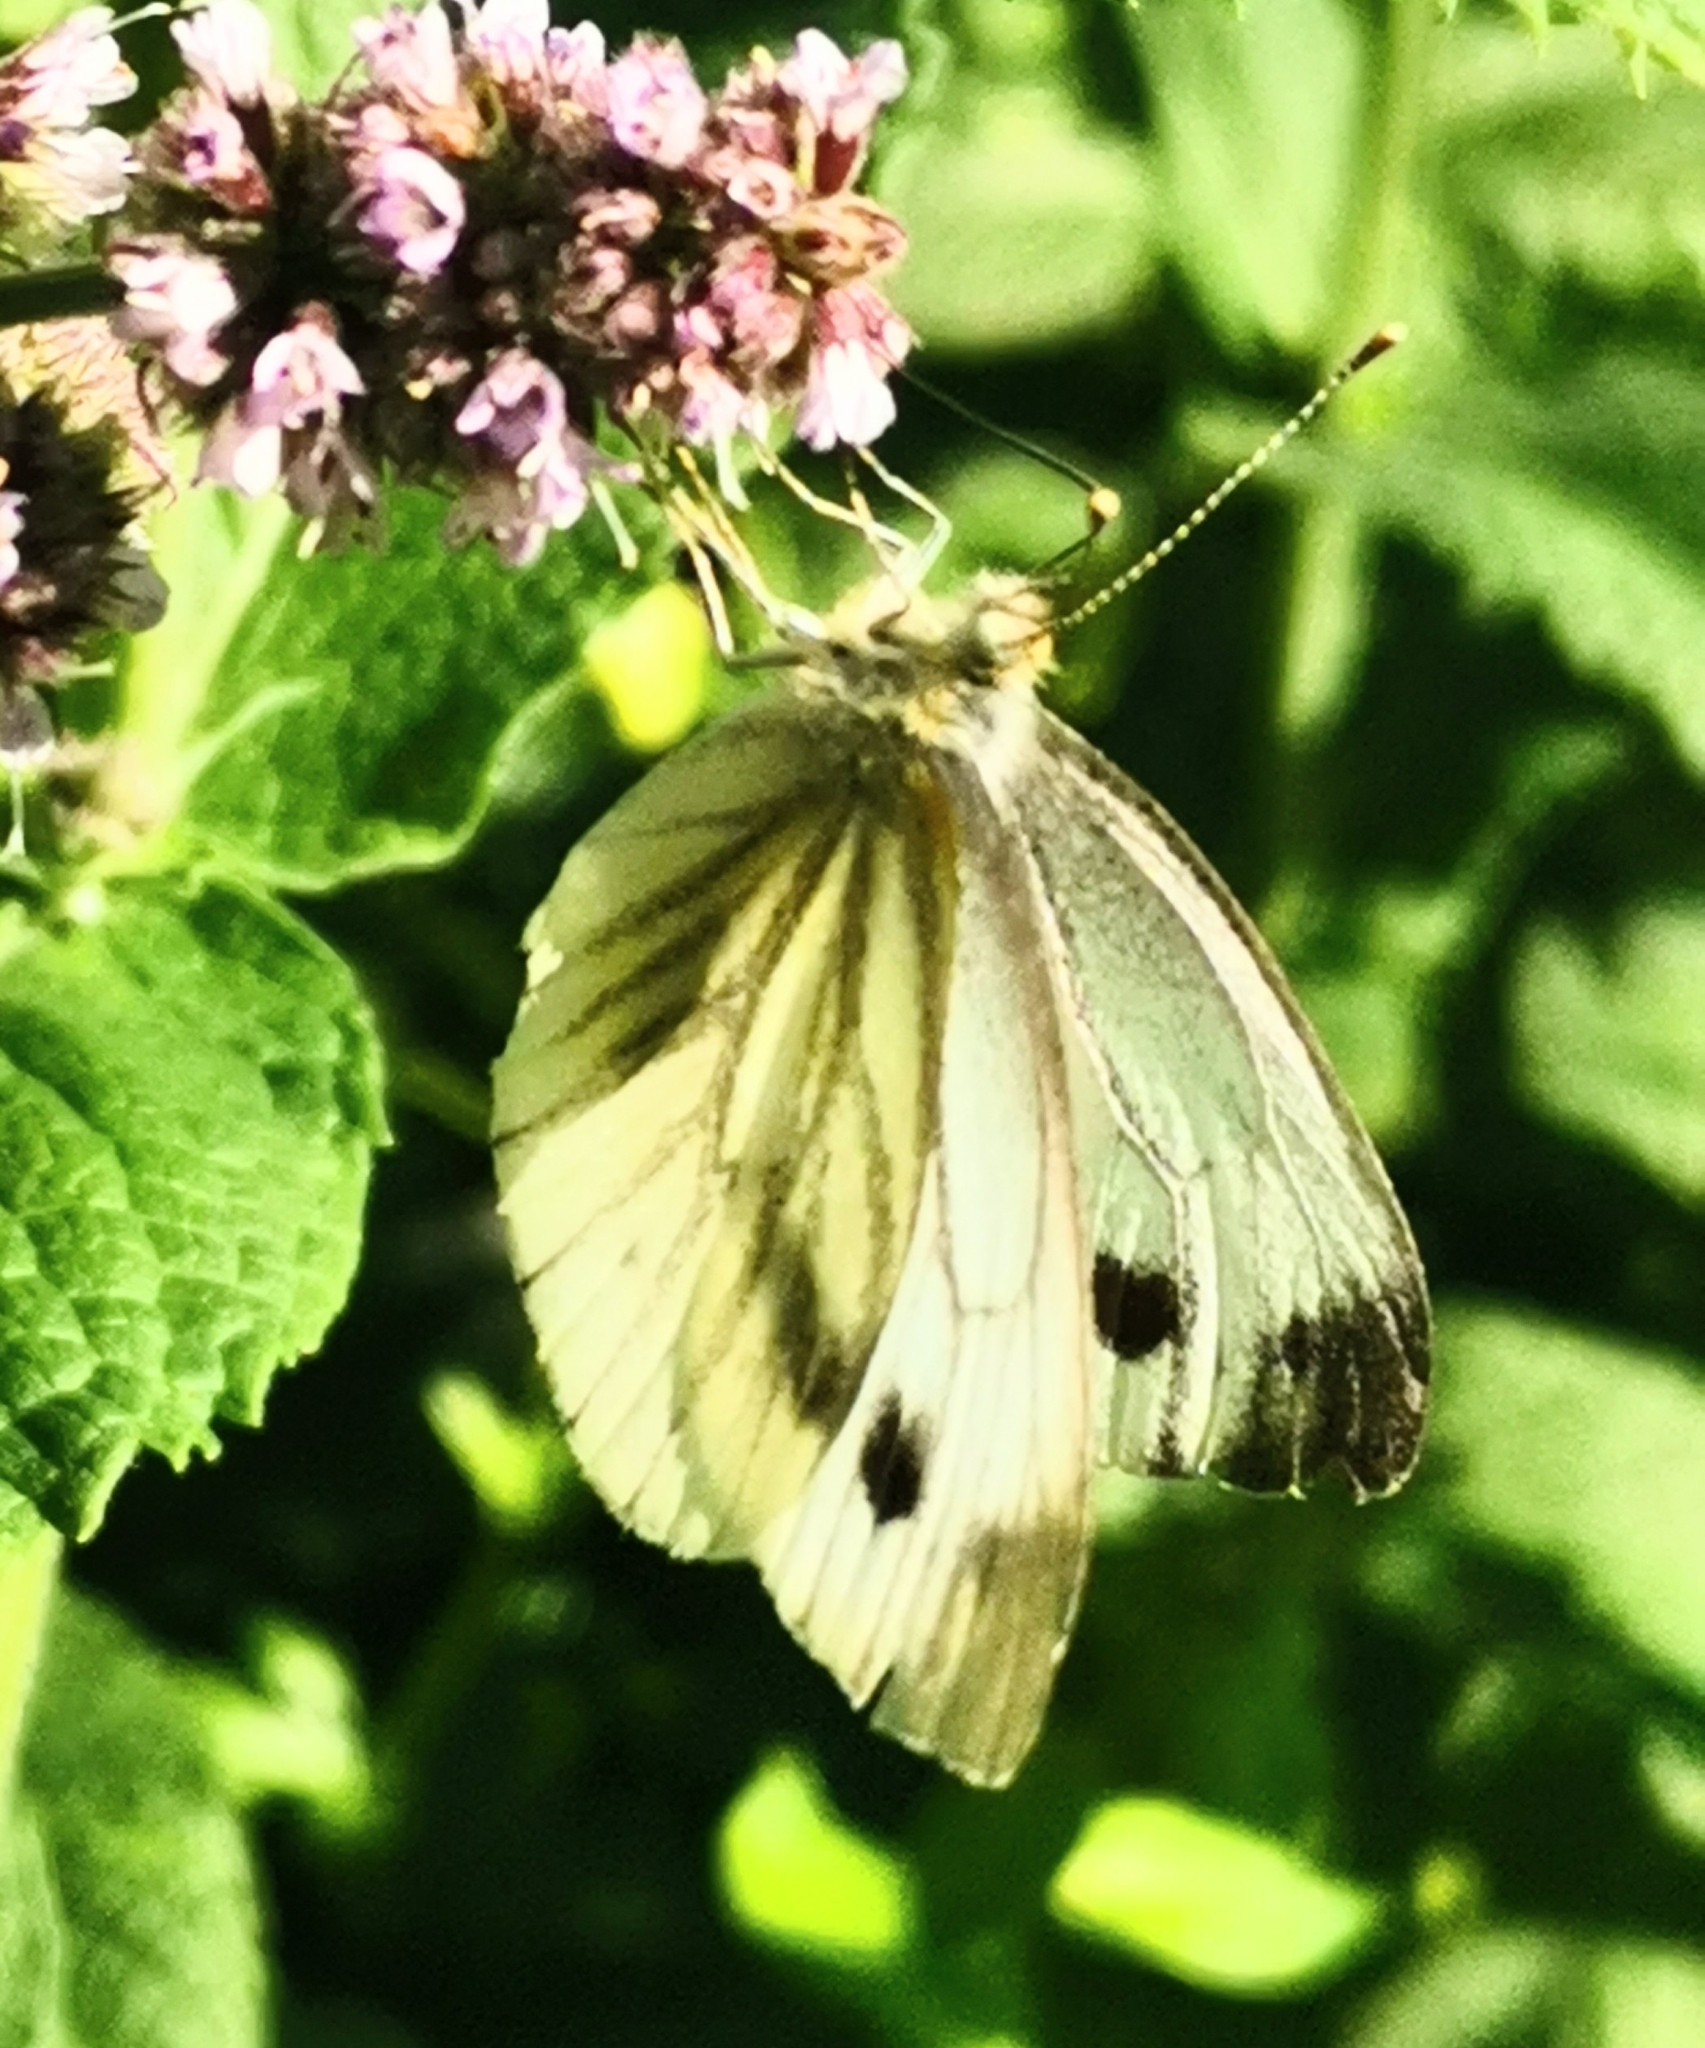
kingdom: Animalia
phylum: Arthropoda
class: Insecta
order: Lepidoptera
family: Pieridae
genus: Pieris
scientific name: Pieris napi
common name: Green-veined white
